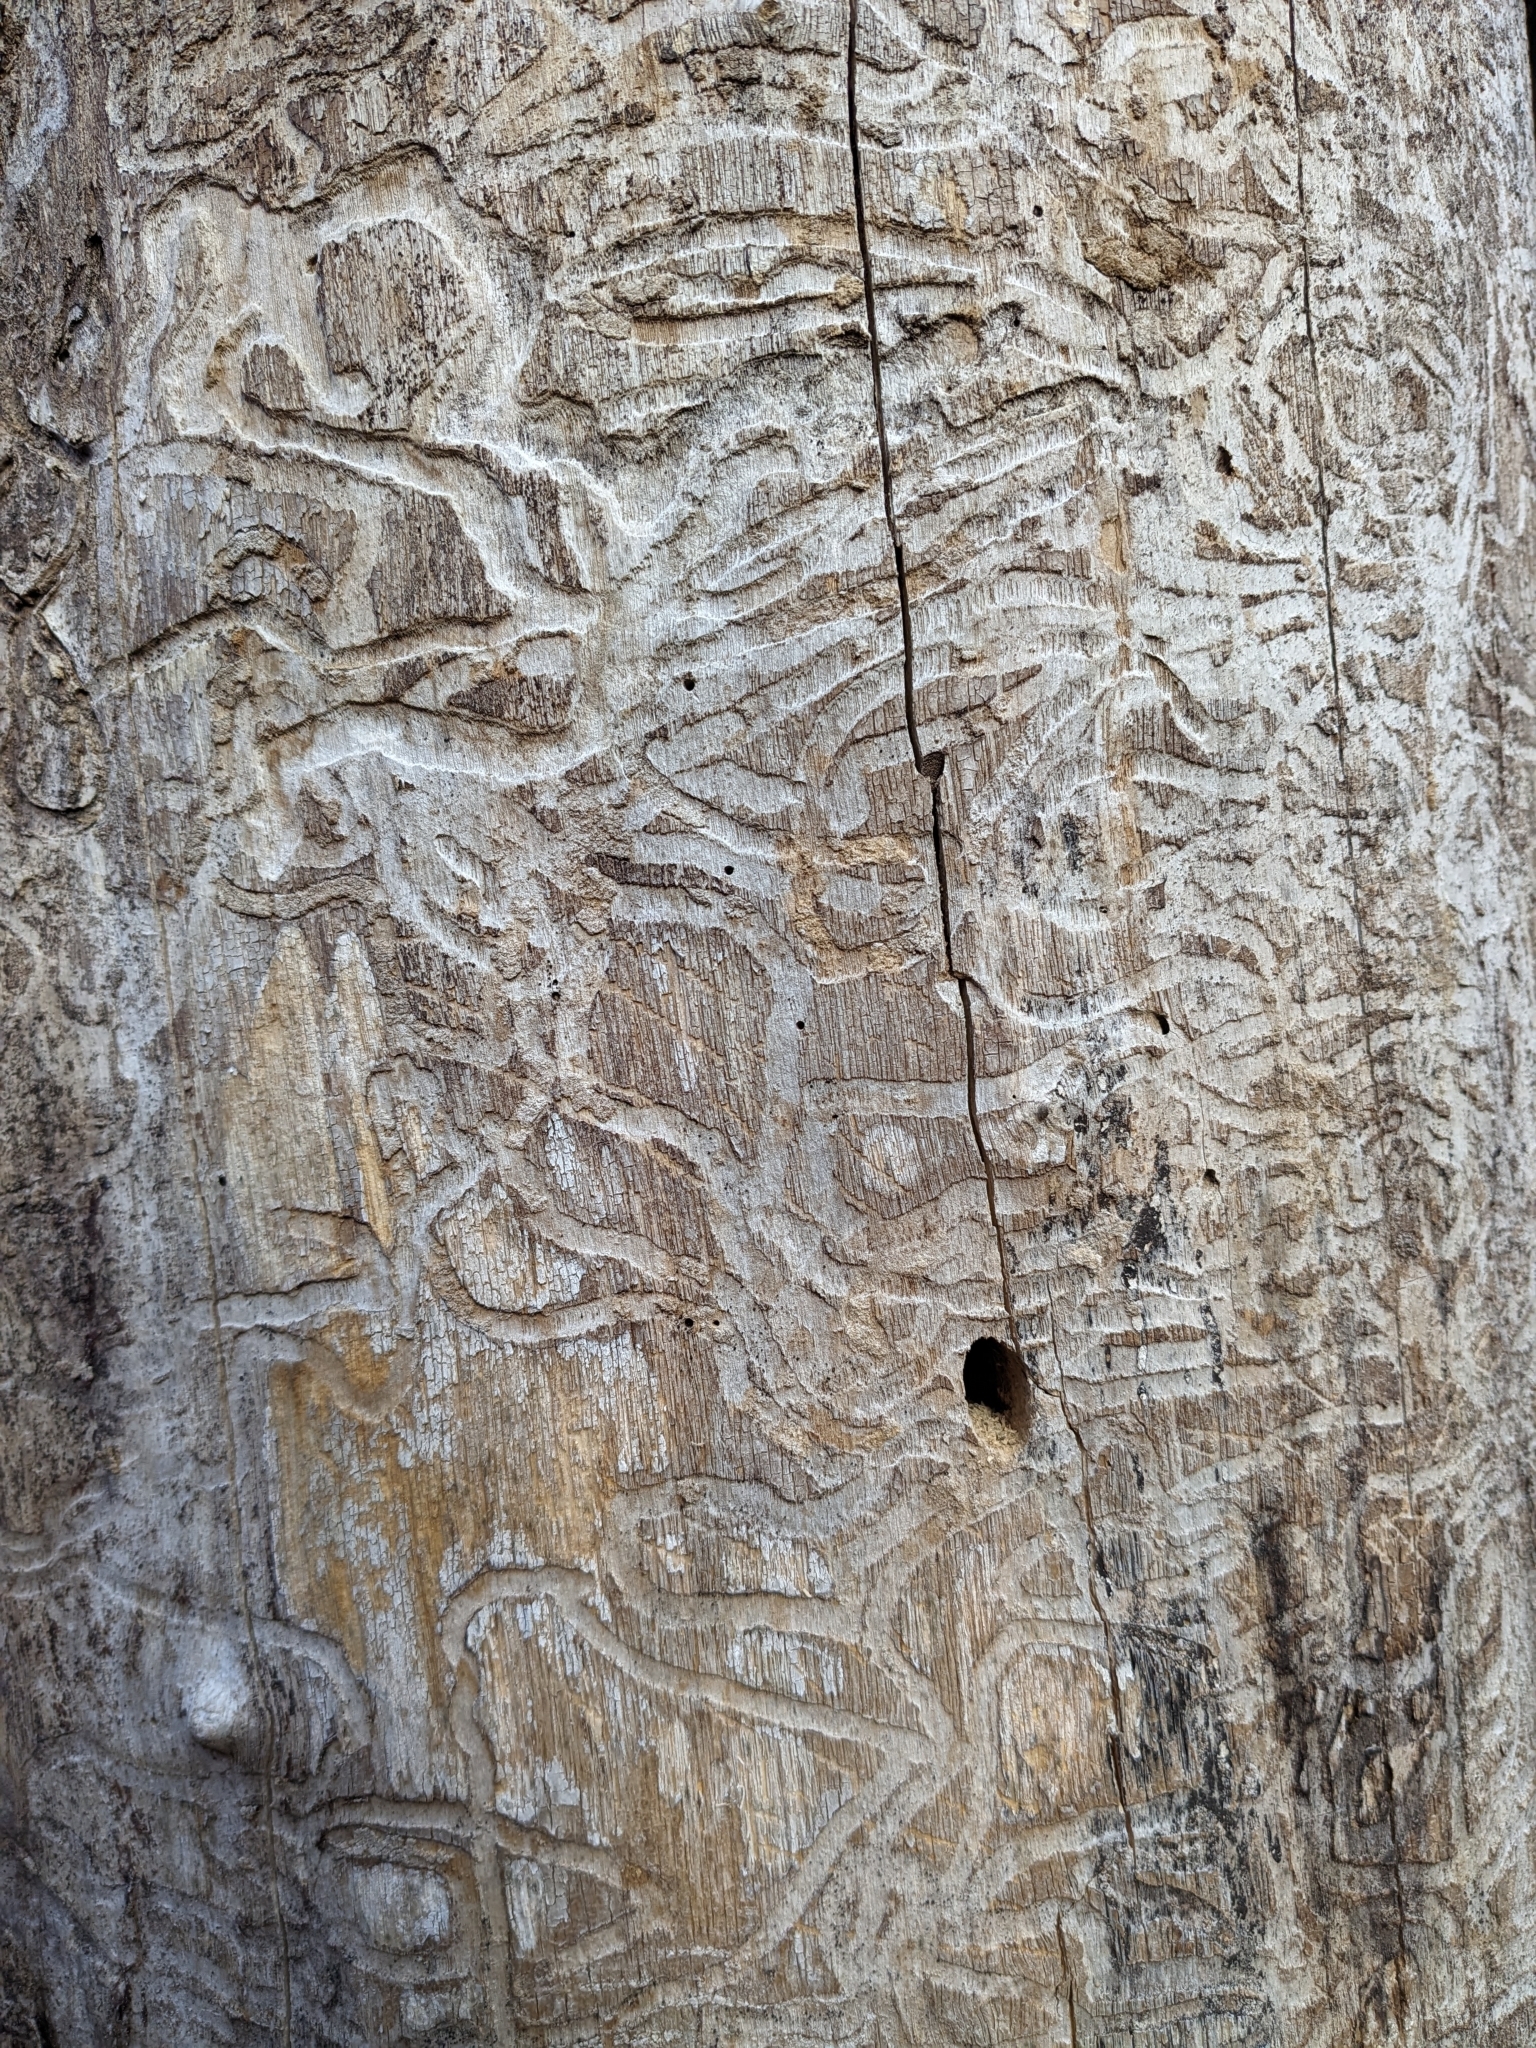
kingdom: Animalia
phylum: Arthropoda
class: Insecta
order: Coleoptera
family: Buprestidae
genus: Agrilus
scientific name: Agrilus planipennis
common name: Emerald ash borer
